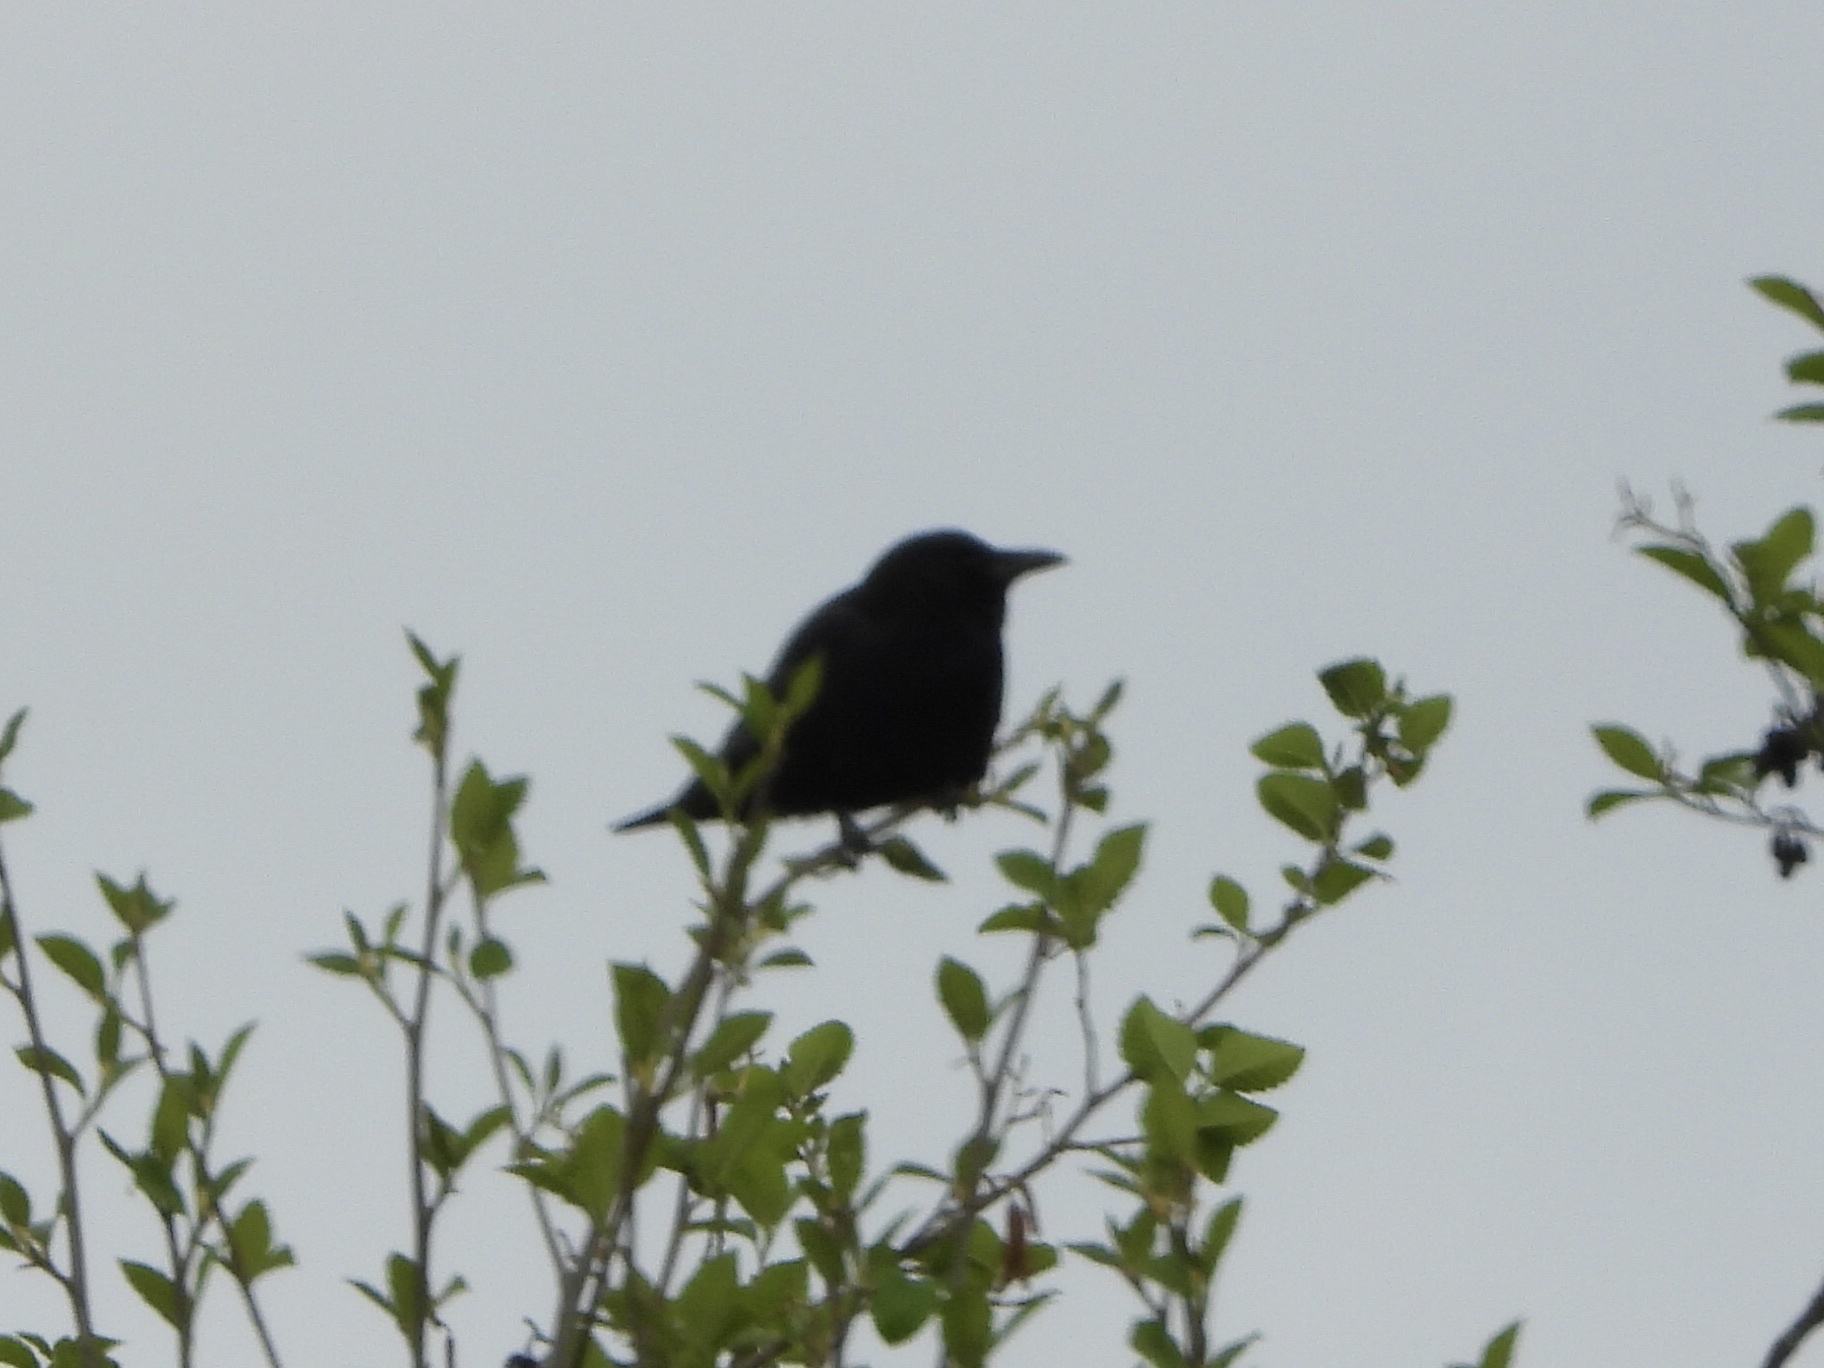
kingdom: Animalia
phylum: Chordata
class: Aves
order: Passeriformes
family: Corvidae
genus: Corvus
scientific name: Corvus brachyrhynchos
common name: American crow
